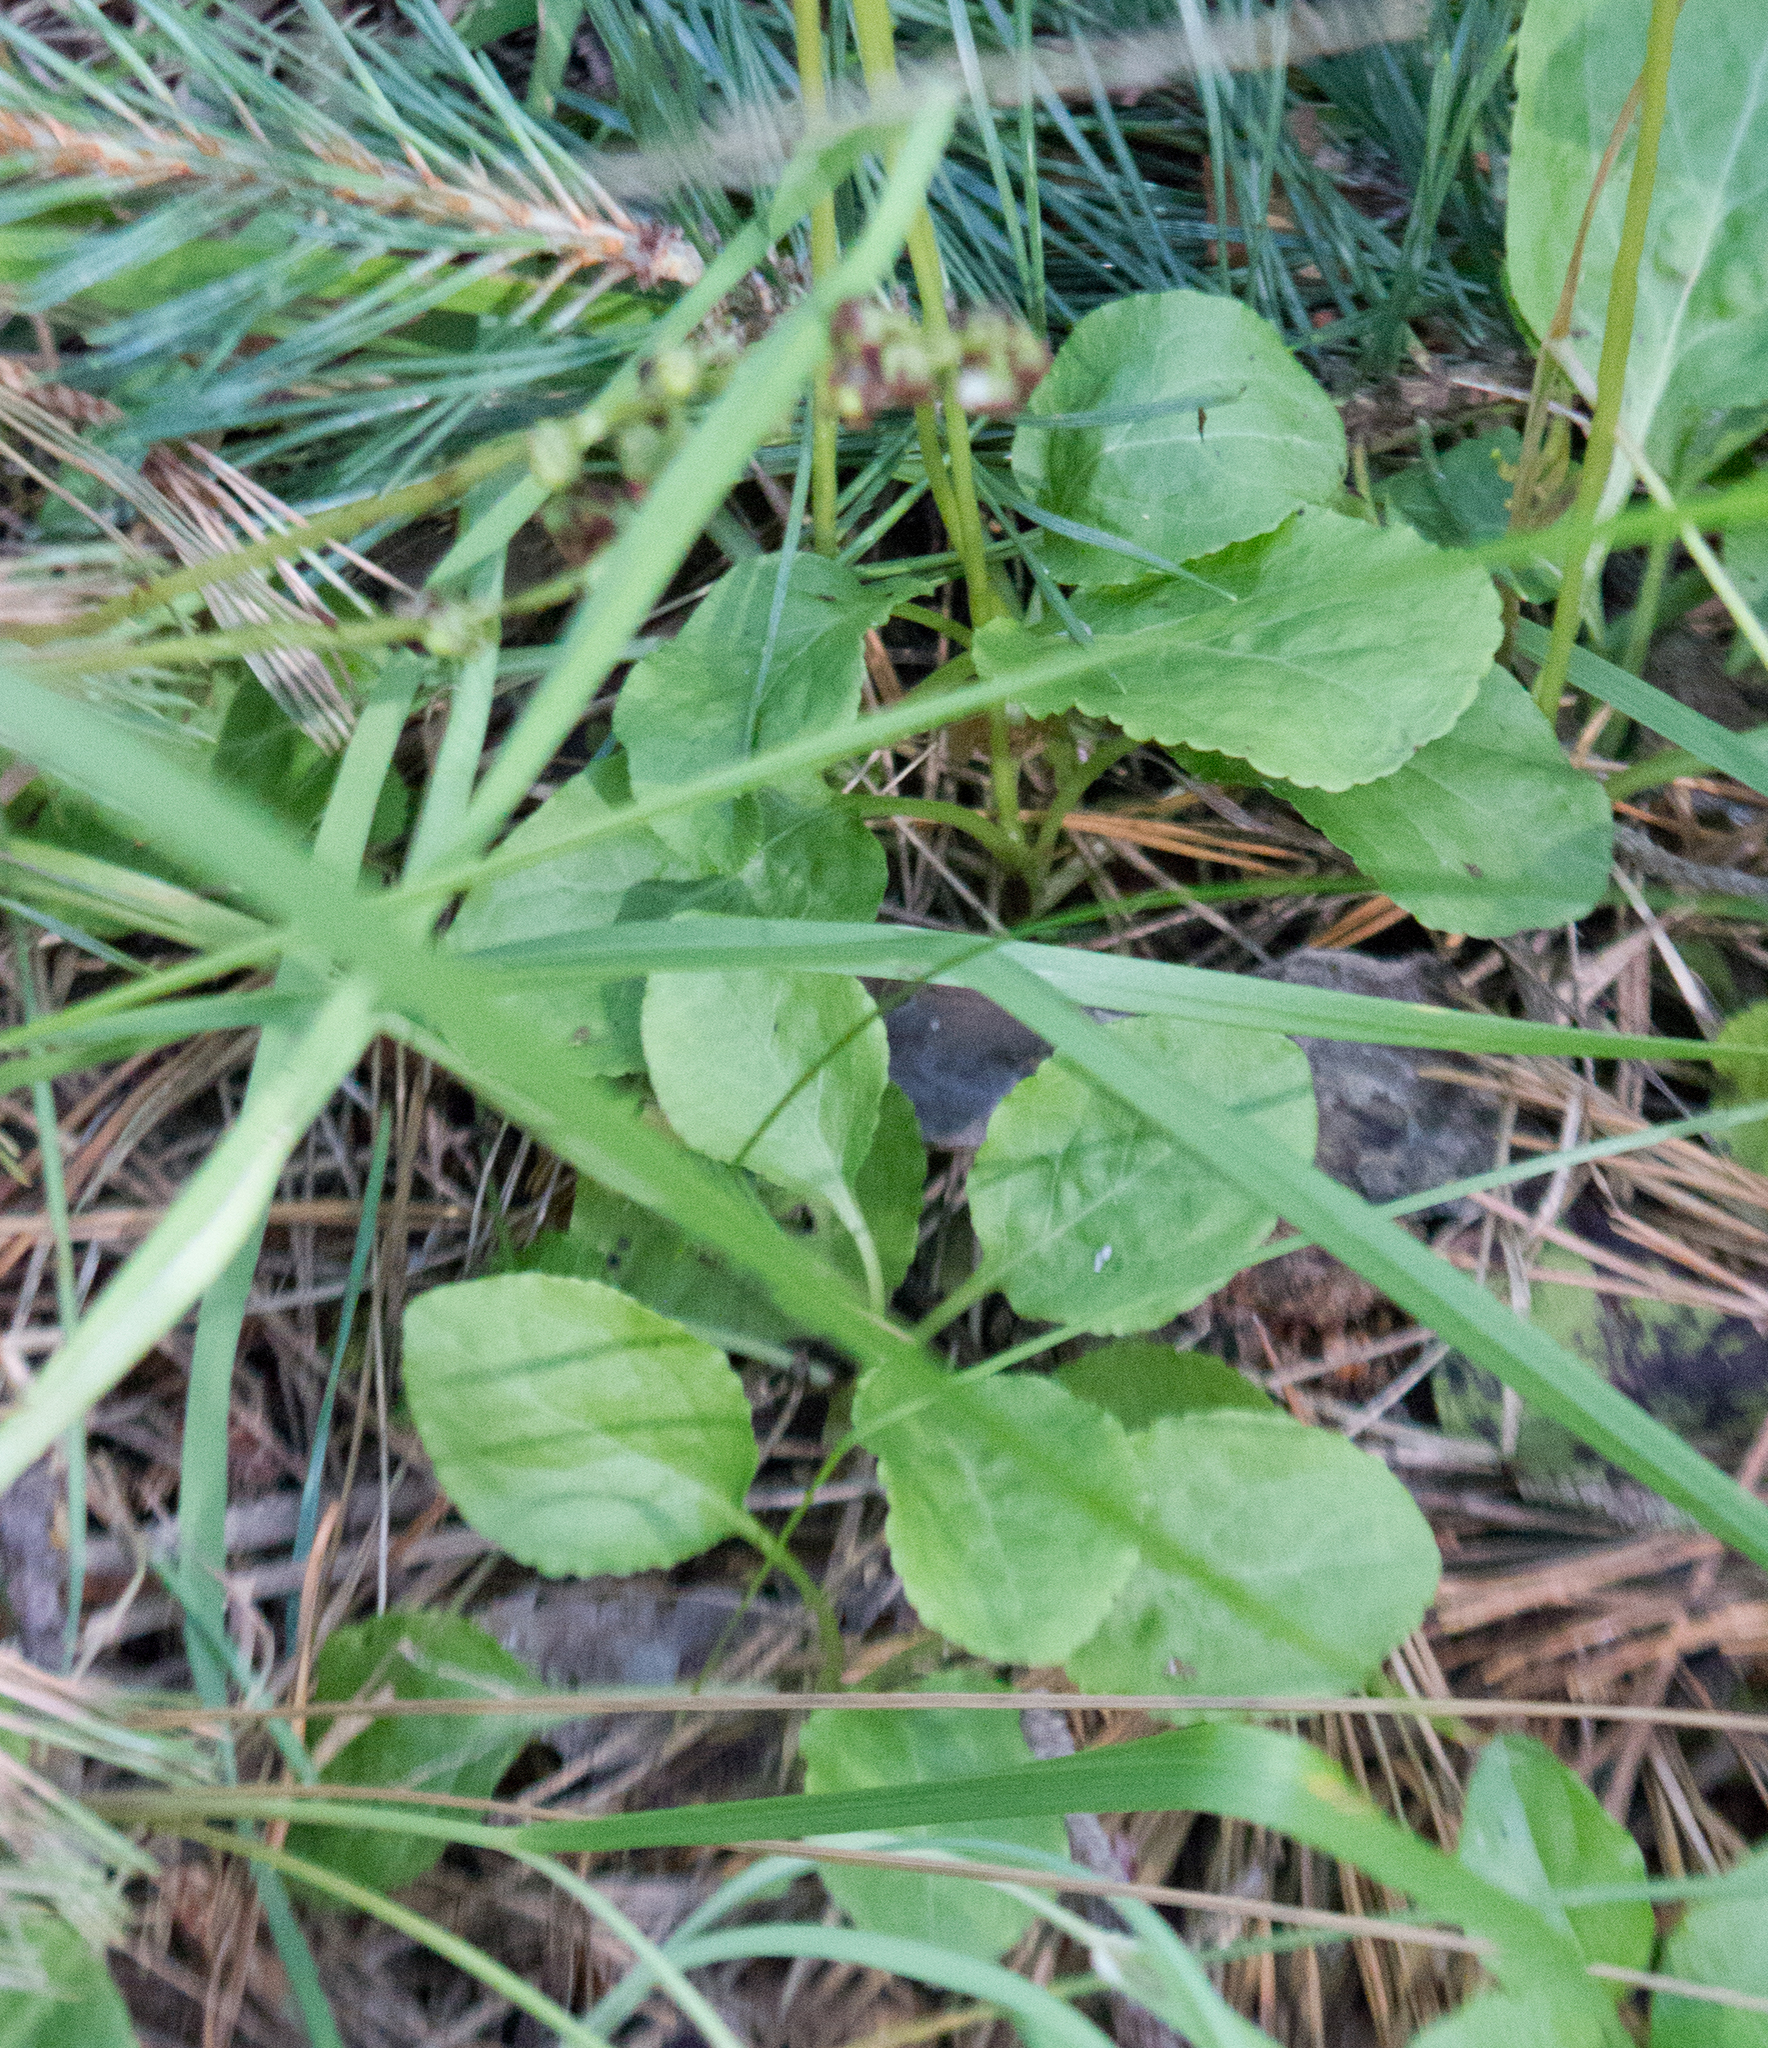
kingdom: Plantae
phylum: Tracheophyta
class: Magnoliopsida
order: Ericales
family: Ericaceae
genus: Pyrola
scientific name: Pyrola minor
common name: Common wintergreen
